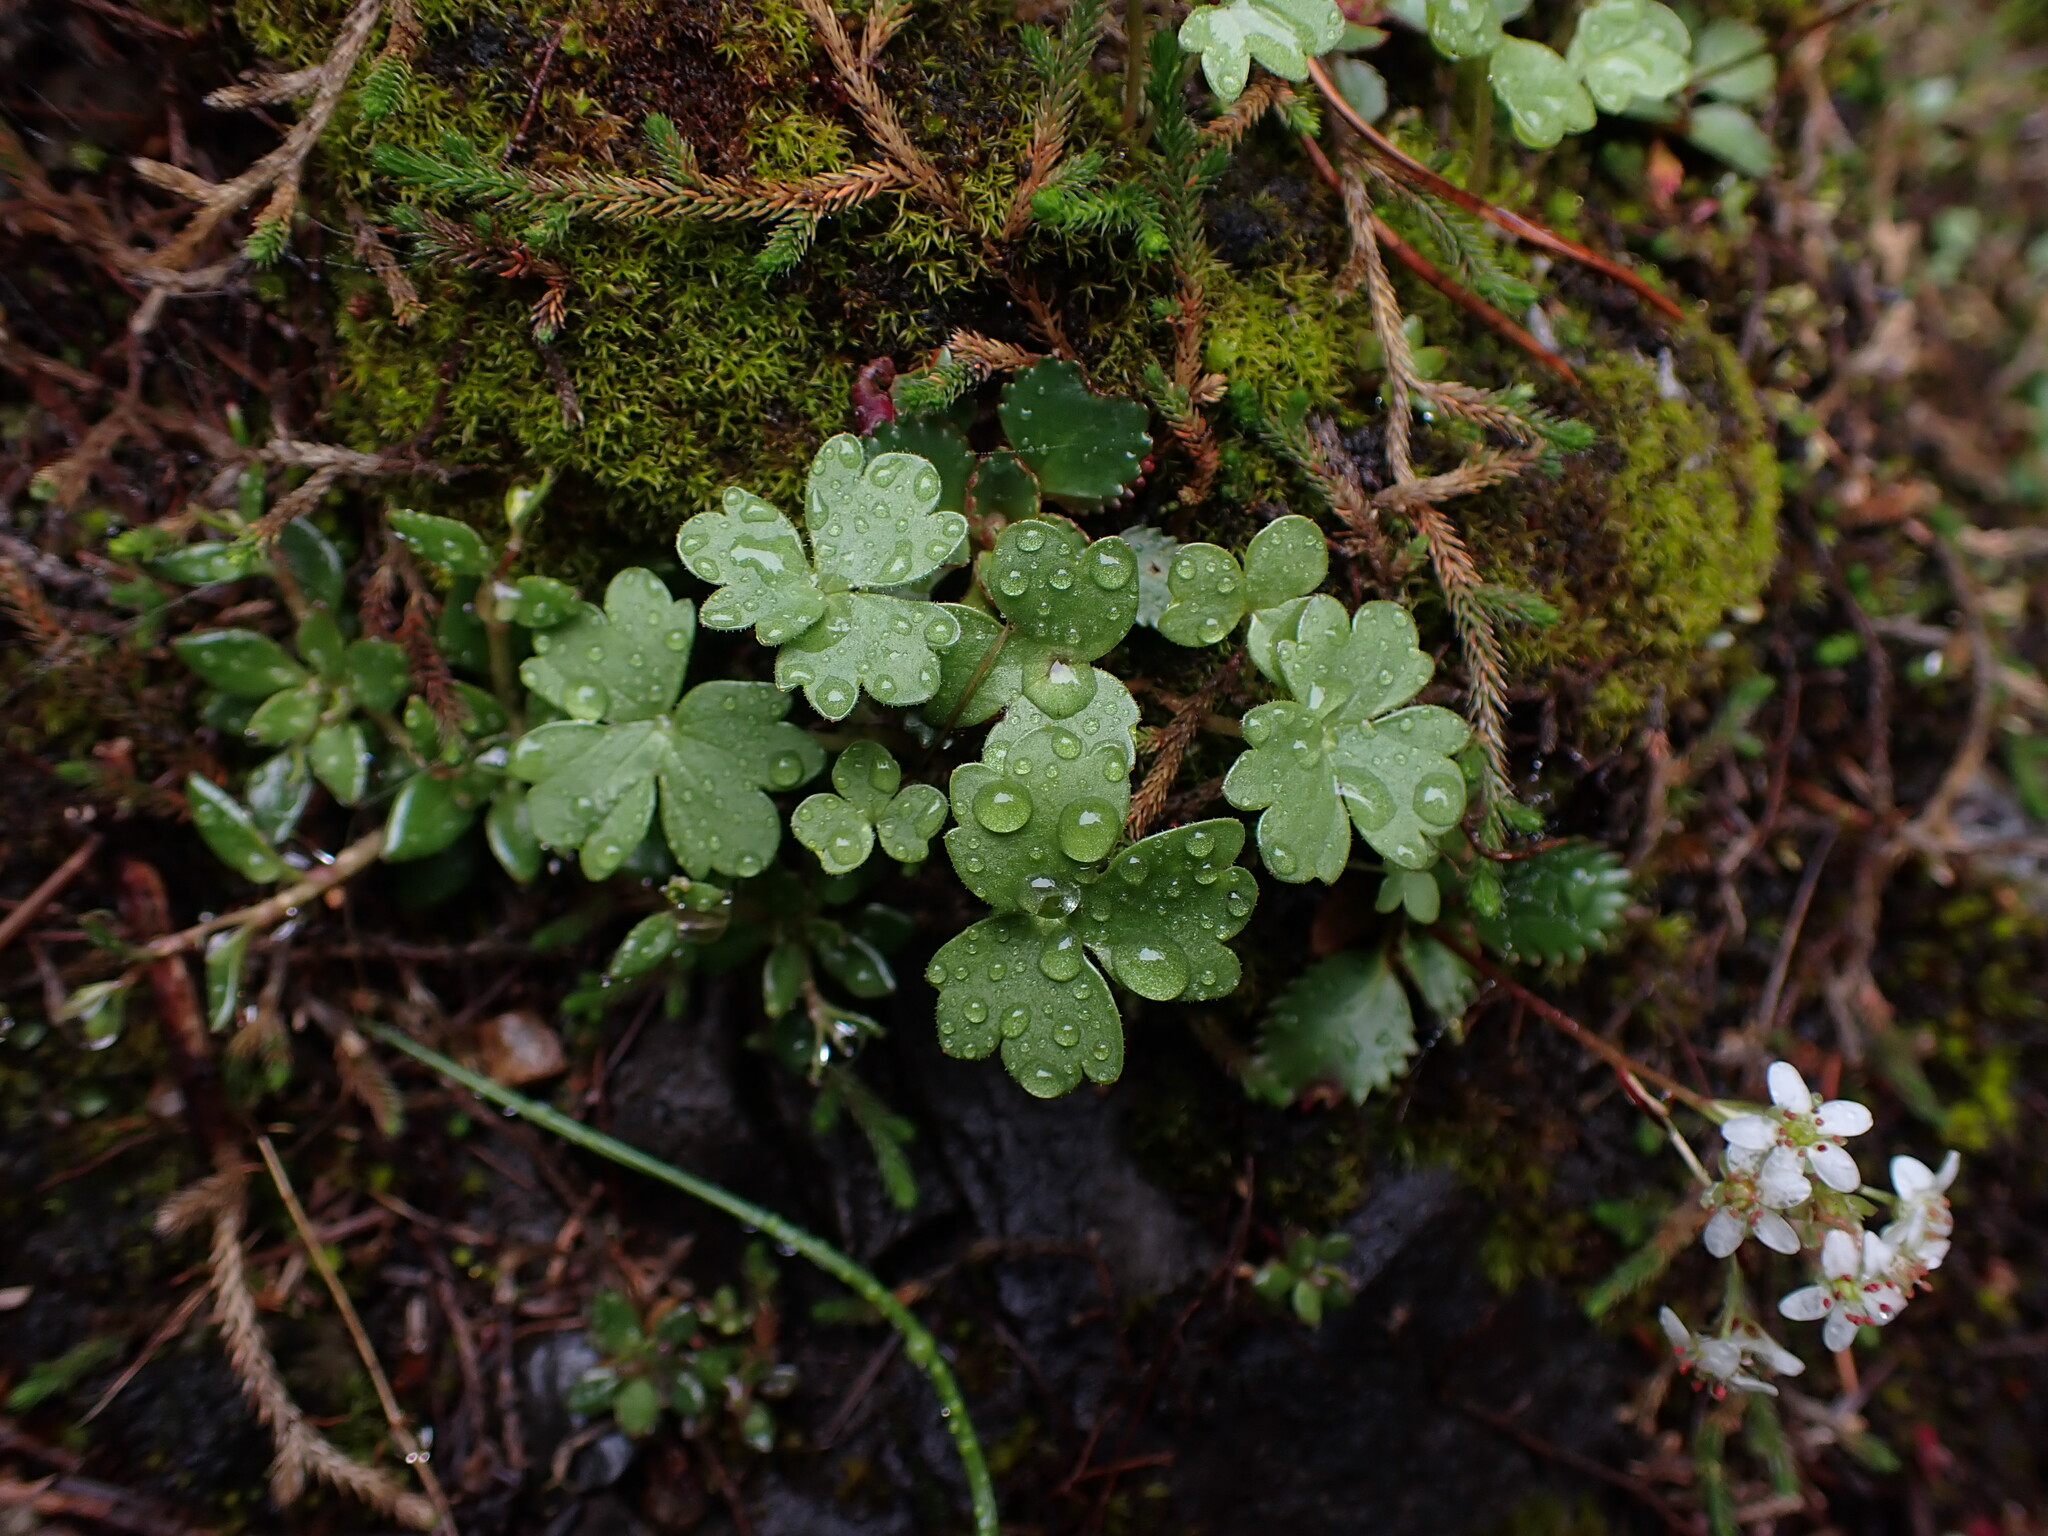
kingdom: Plantae
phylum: Tracheophyta
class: Magnoliopsida
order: Saxifragales
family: Saxifragaceae
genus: Hemieva
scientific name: Hemieva ranunculifolia
